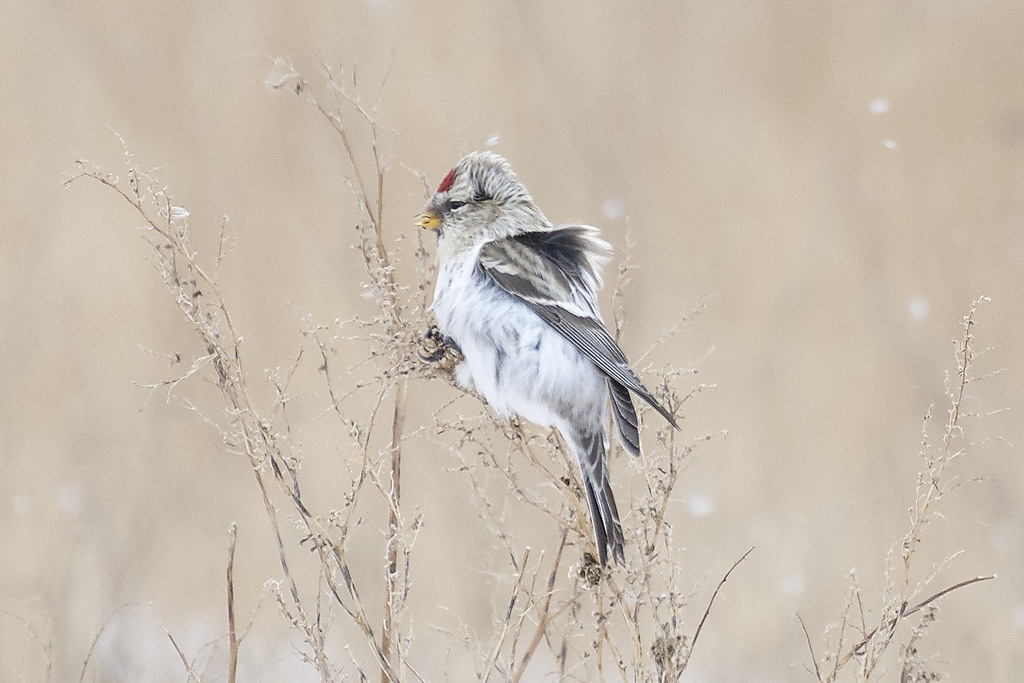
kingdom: Animalia
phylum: Chordata
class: Aves
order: Passeriformes
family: Fringillidae
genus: Acanthis
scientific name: Acanthis hornemanni
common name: Arctic redpoll
